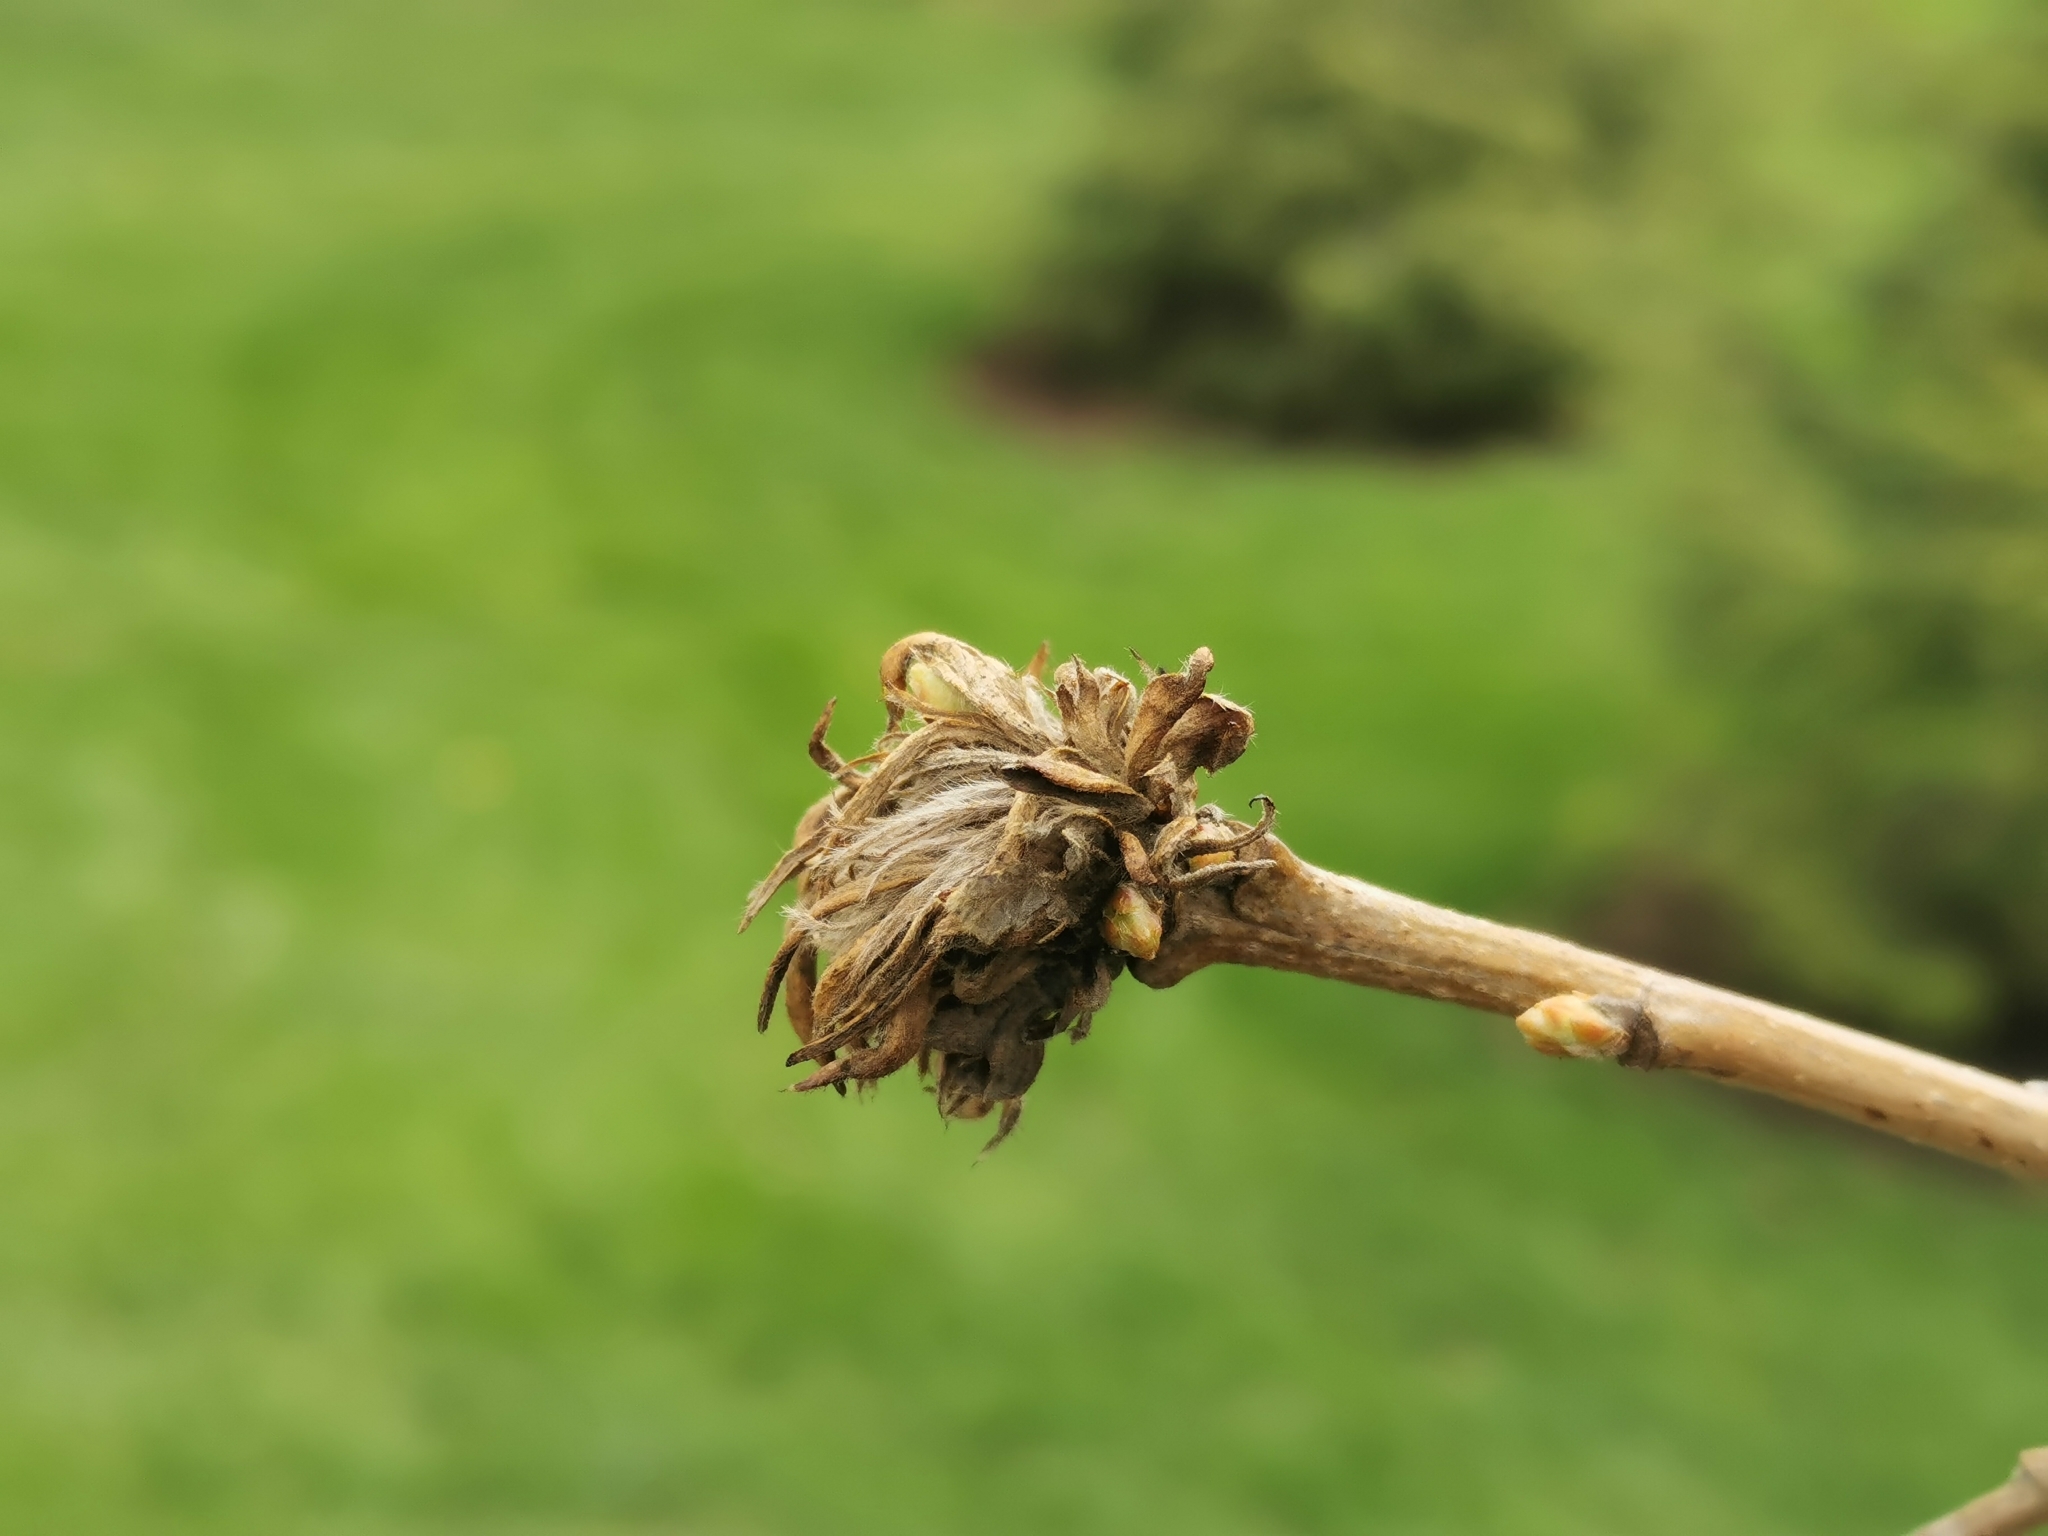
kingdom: Animalia
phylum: Arthropoda
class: Insecta
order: Hymenoptera
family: Cynipidae
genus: Andricus
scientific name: Andricus
